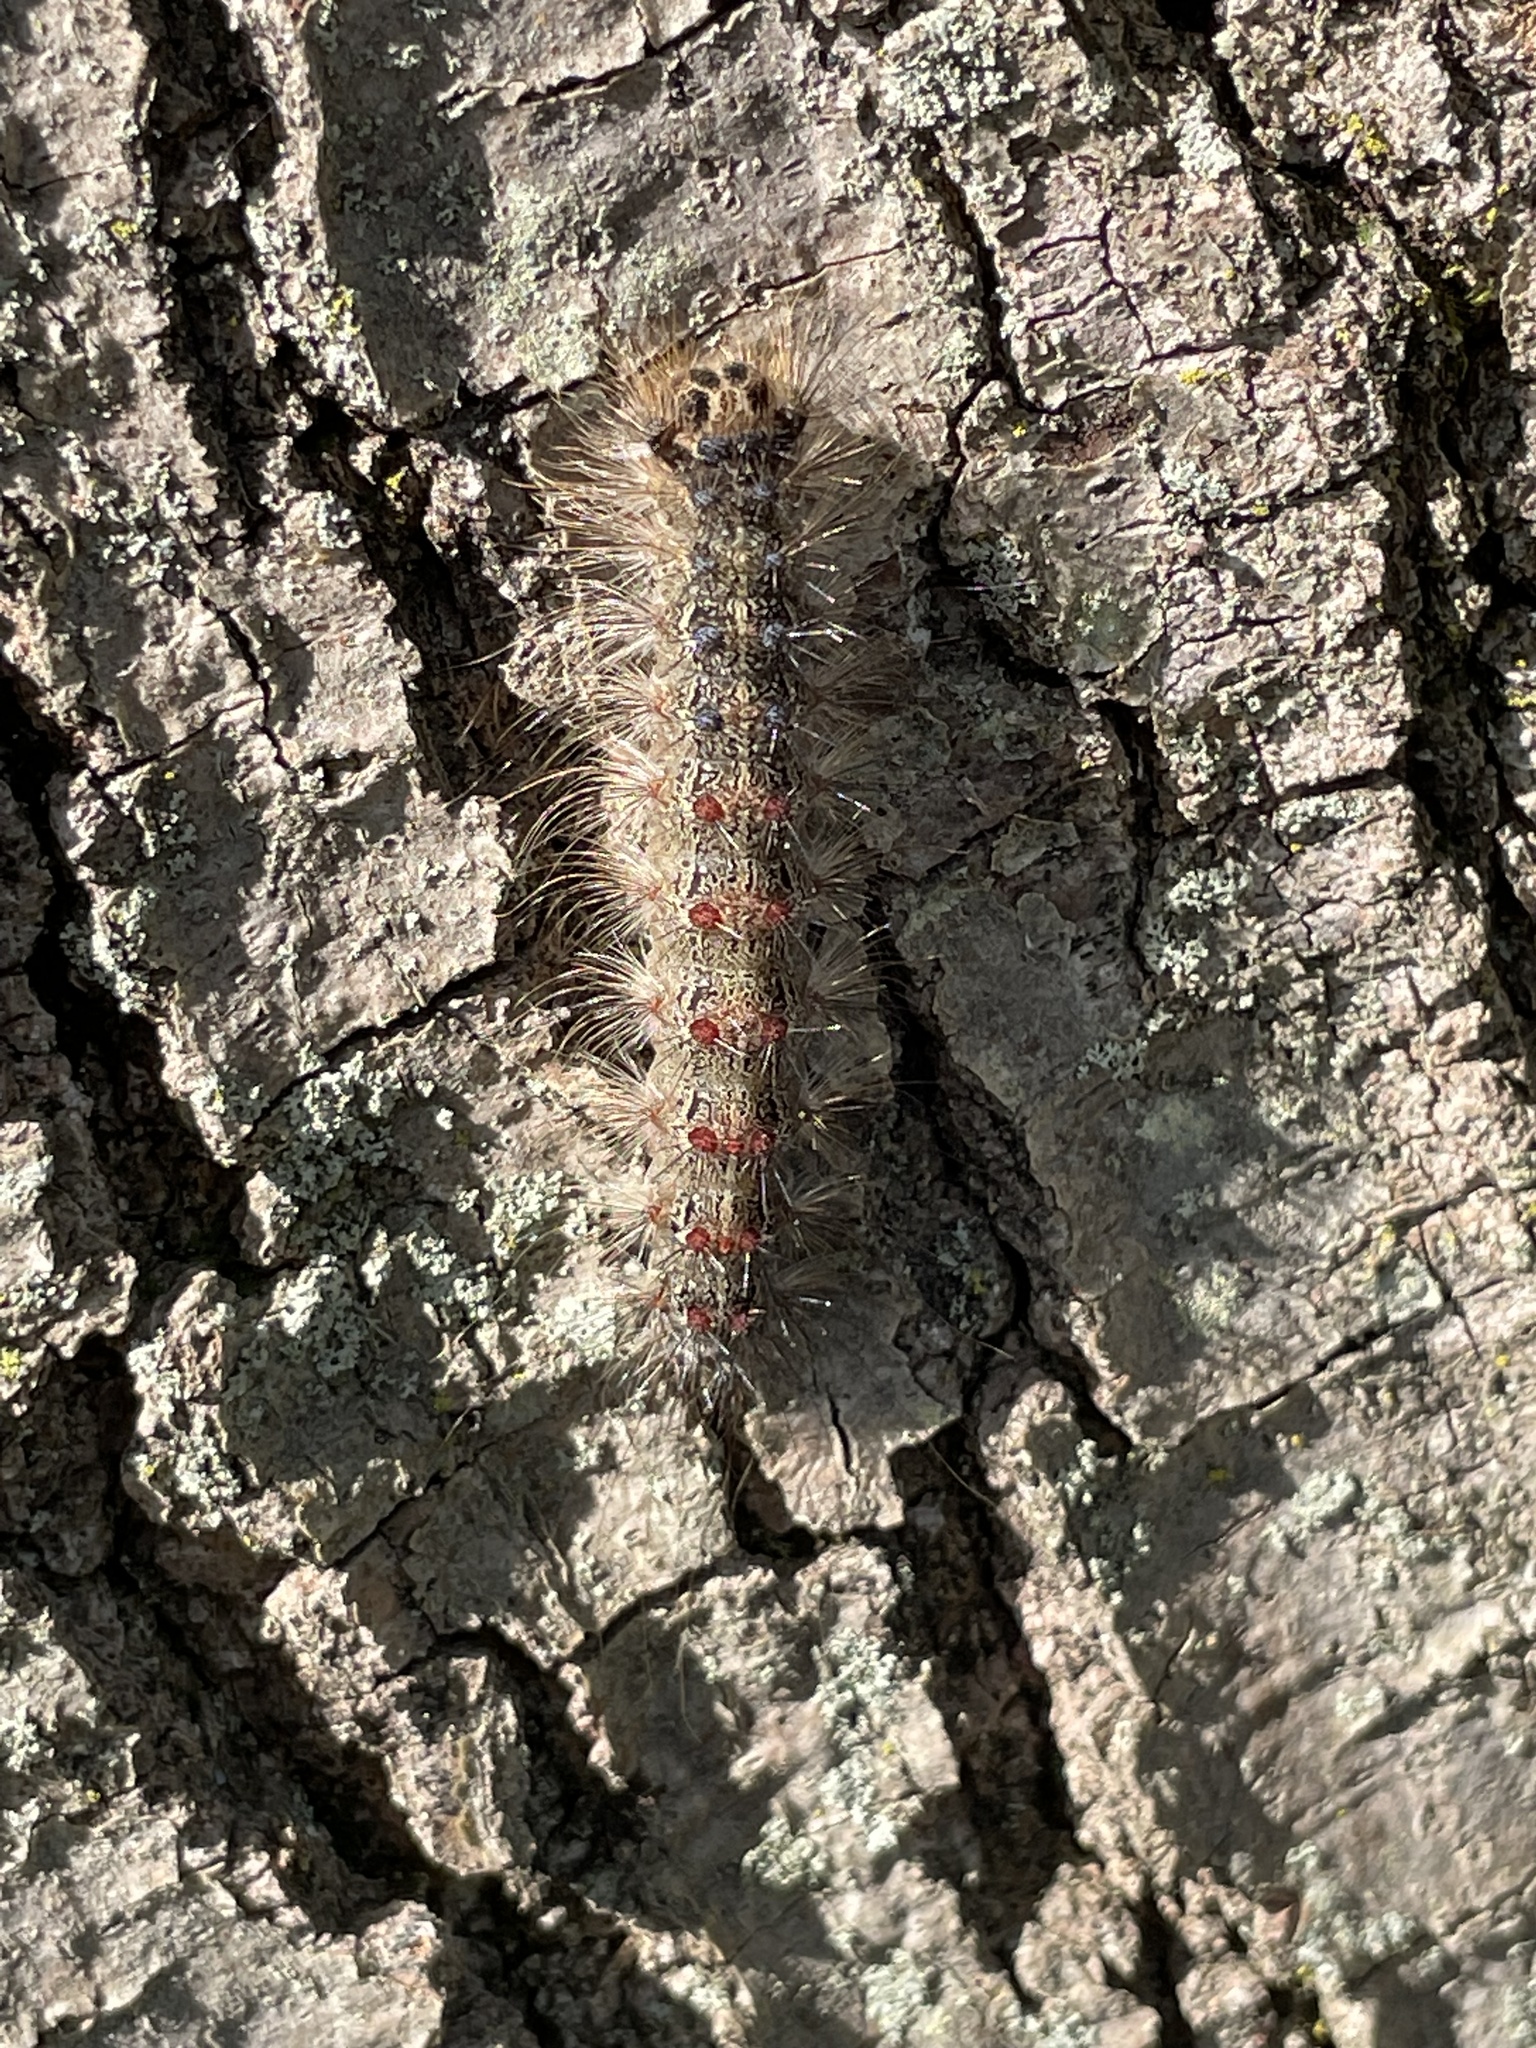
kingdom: Animalia
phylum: Arthropoda
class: Insecta
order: Lepidoptera
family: Erebidae
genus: Lymantria
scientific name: Lymantria dispar
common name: Gypsy moth
